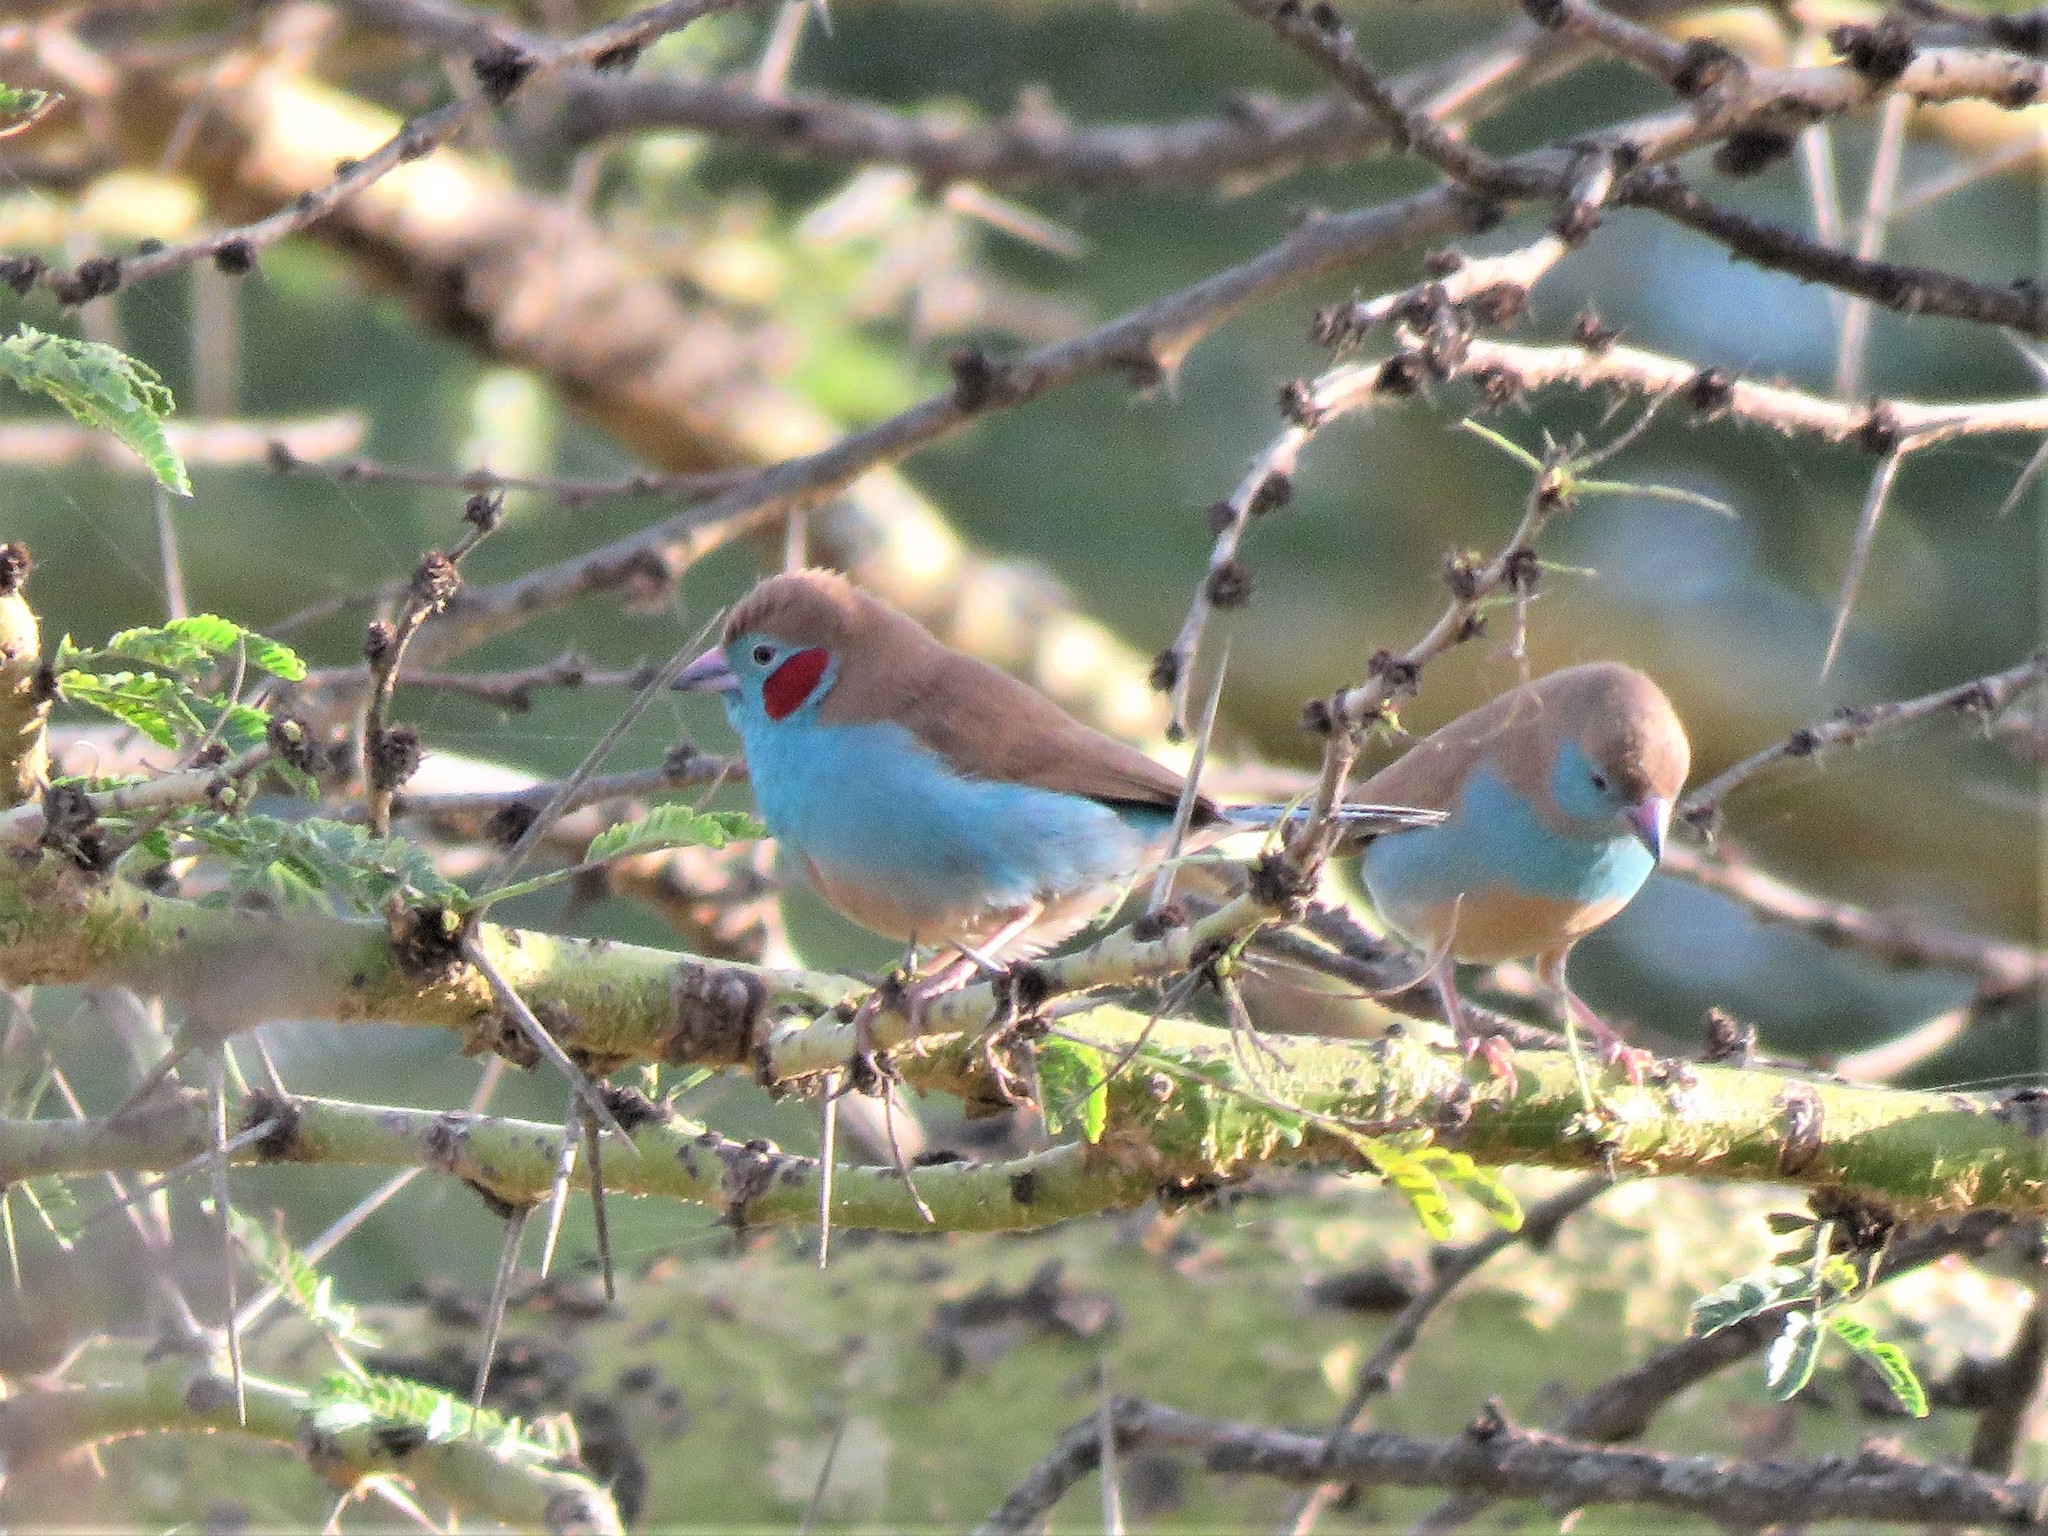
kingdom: Animalia
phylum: Chordata
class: Aves
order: Passeriformes
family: Estrildidae
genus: Uraeginthus
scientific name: Uraeginthus bengalus
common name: Red-cheeked cordon-bleu
